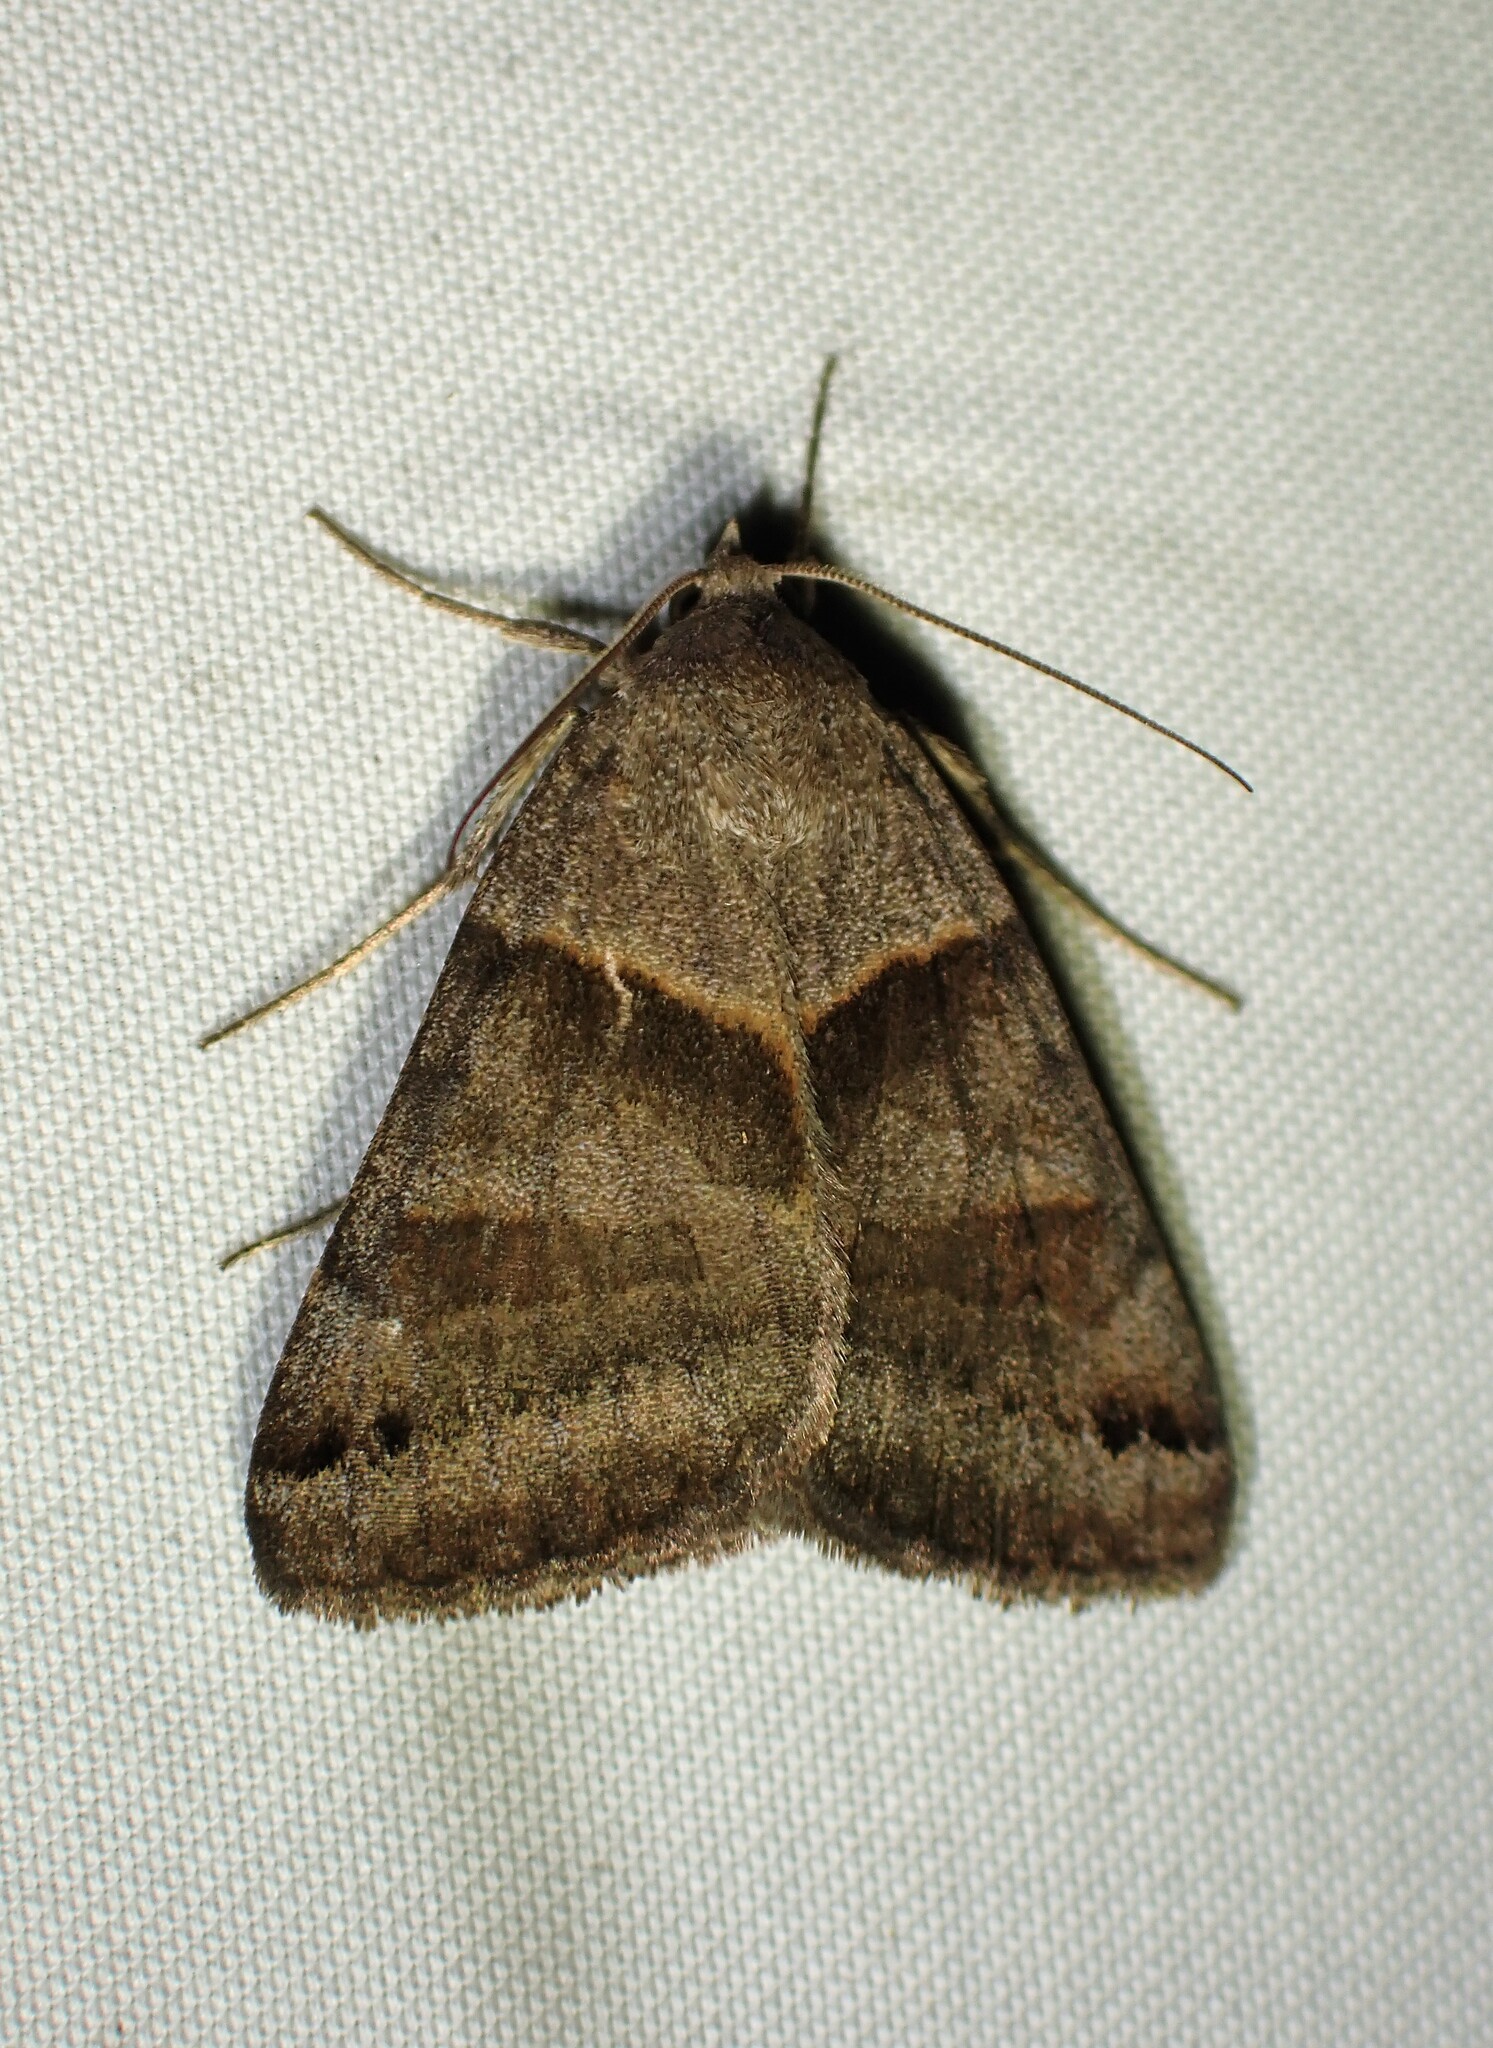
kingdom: Animalia
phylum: Arthropoda
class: Insecta
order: Lepidoptera
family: Erebidae
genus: Caenurgina
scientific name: Caenurgina crassiuscula
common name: Double-barred
